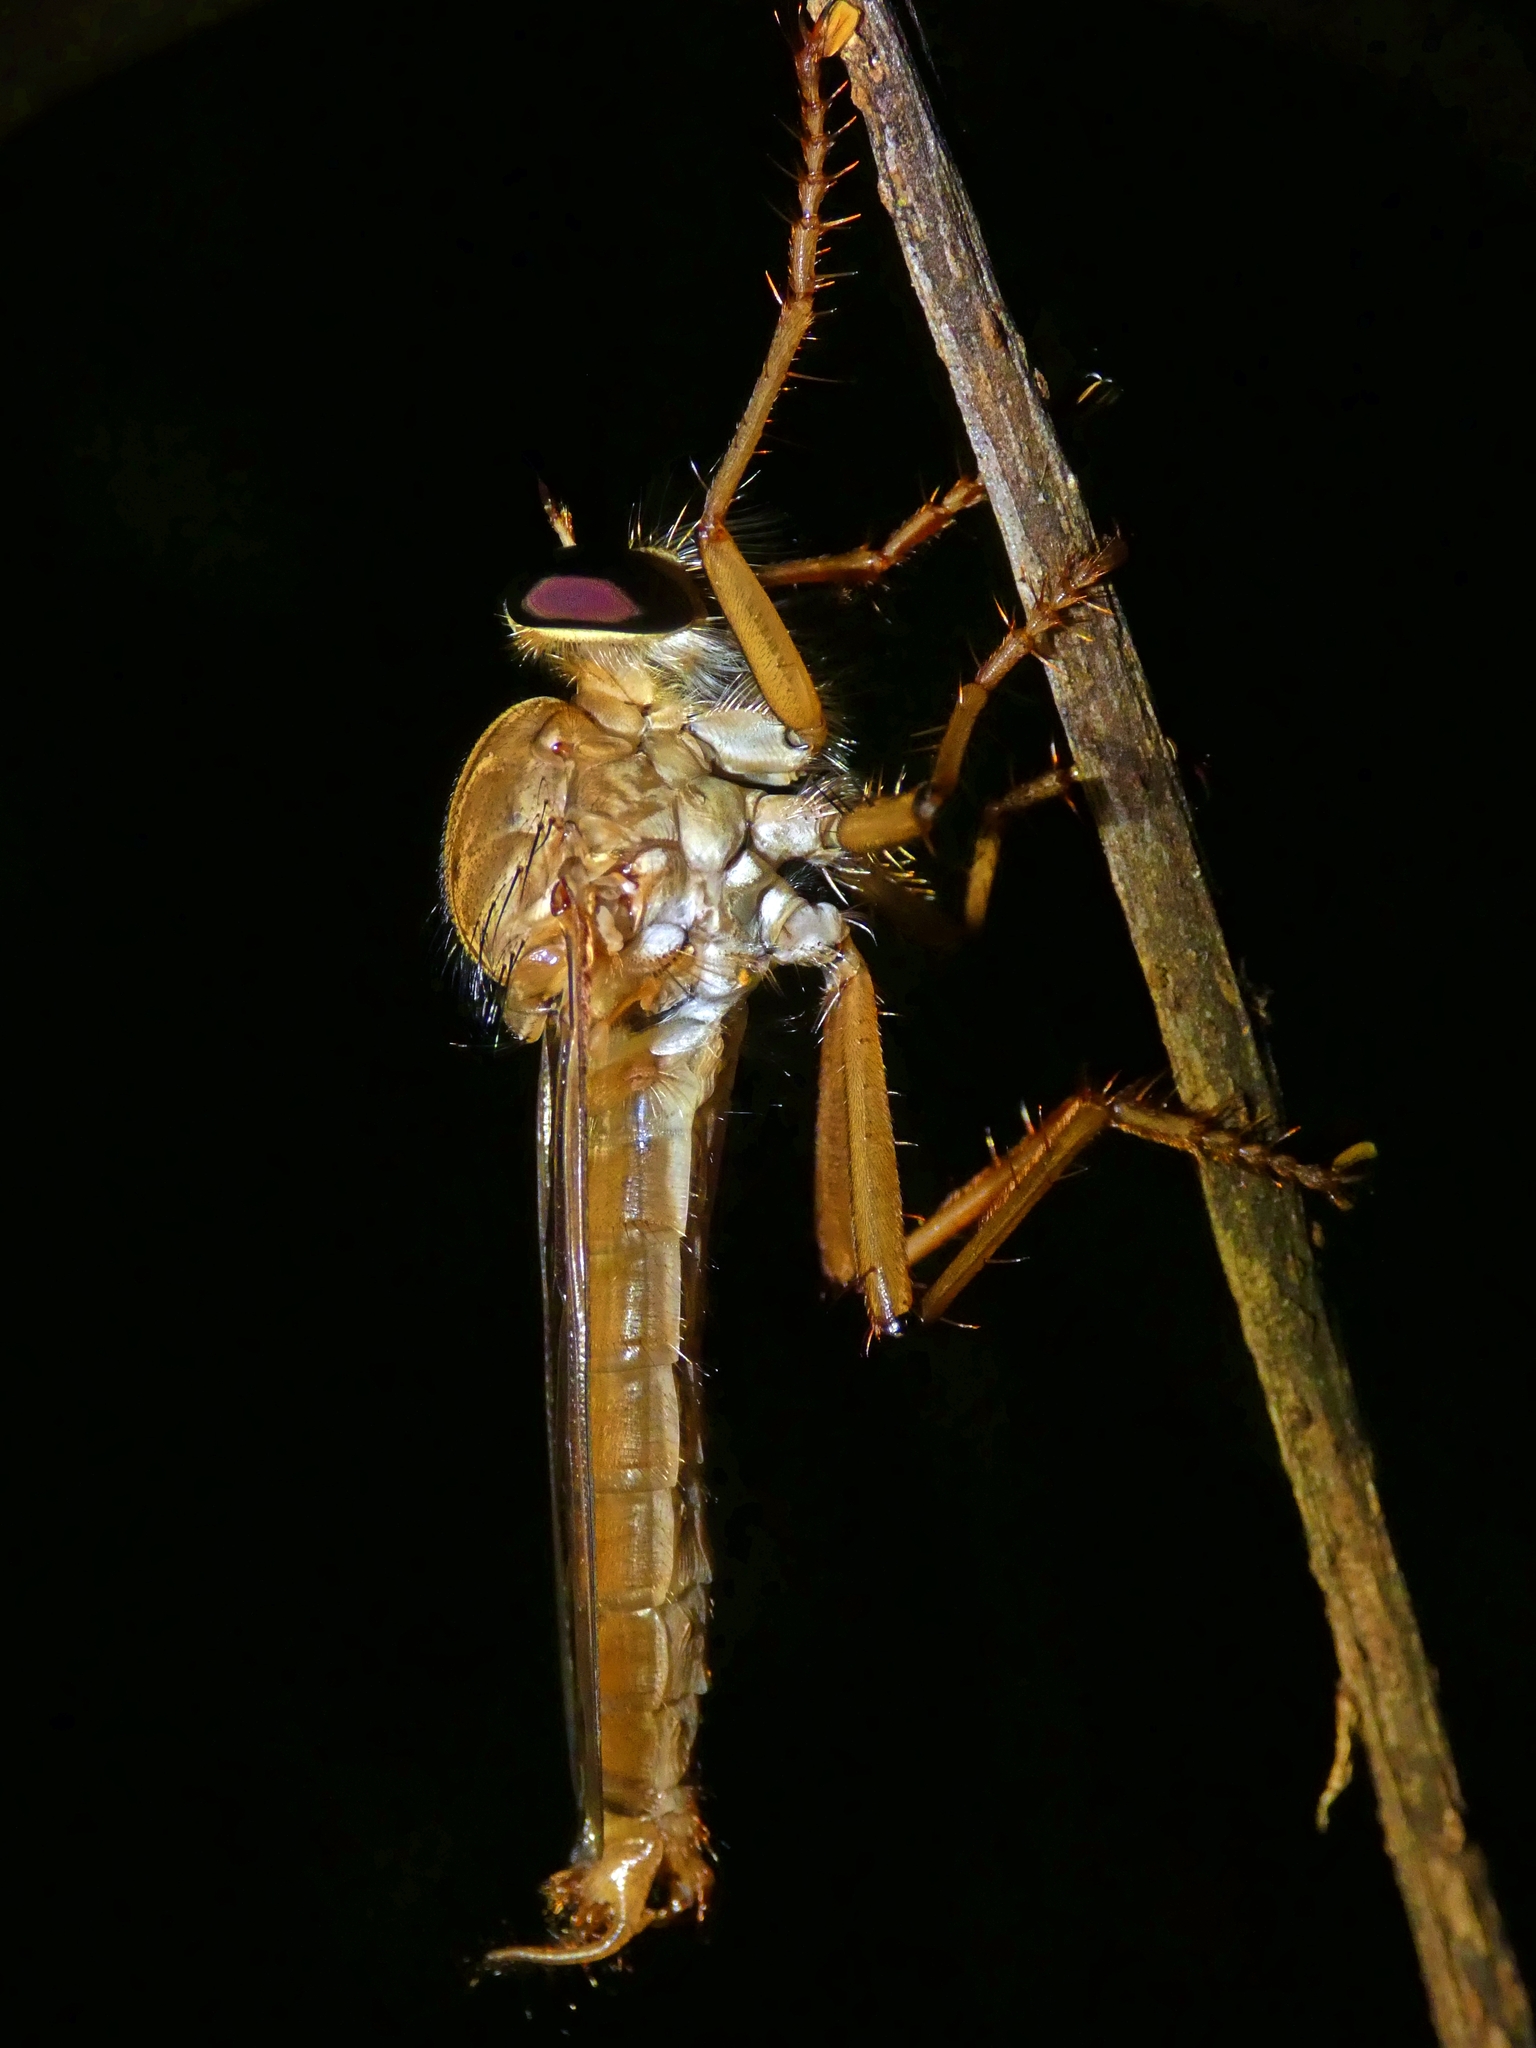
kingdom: Animalia
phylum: Arthropoda
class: Insecta
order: Diptera
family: Asilidae
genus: Dolopus
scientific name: Dolopus genitalis
